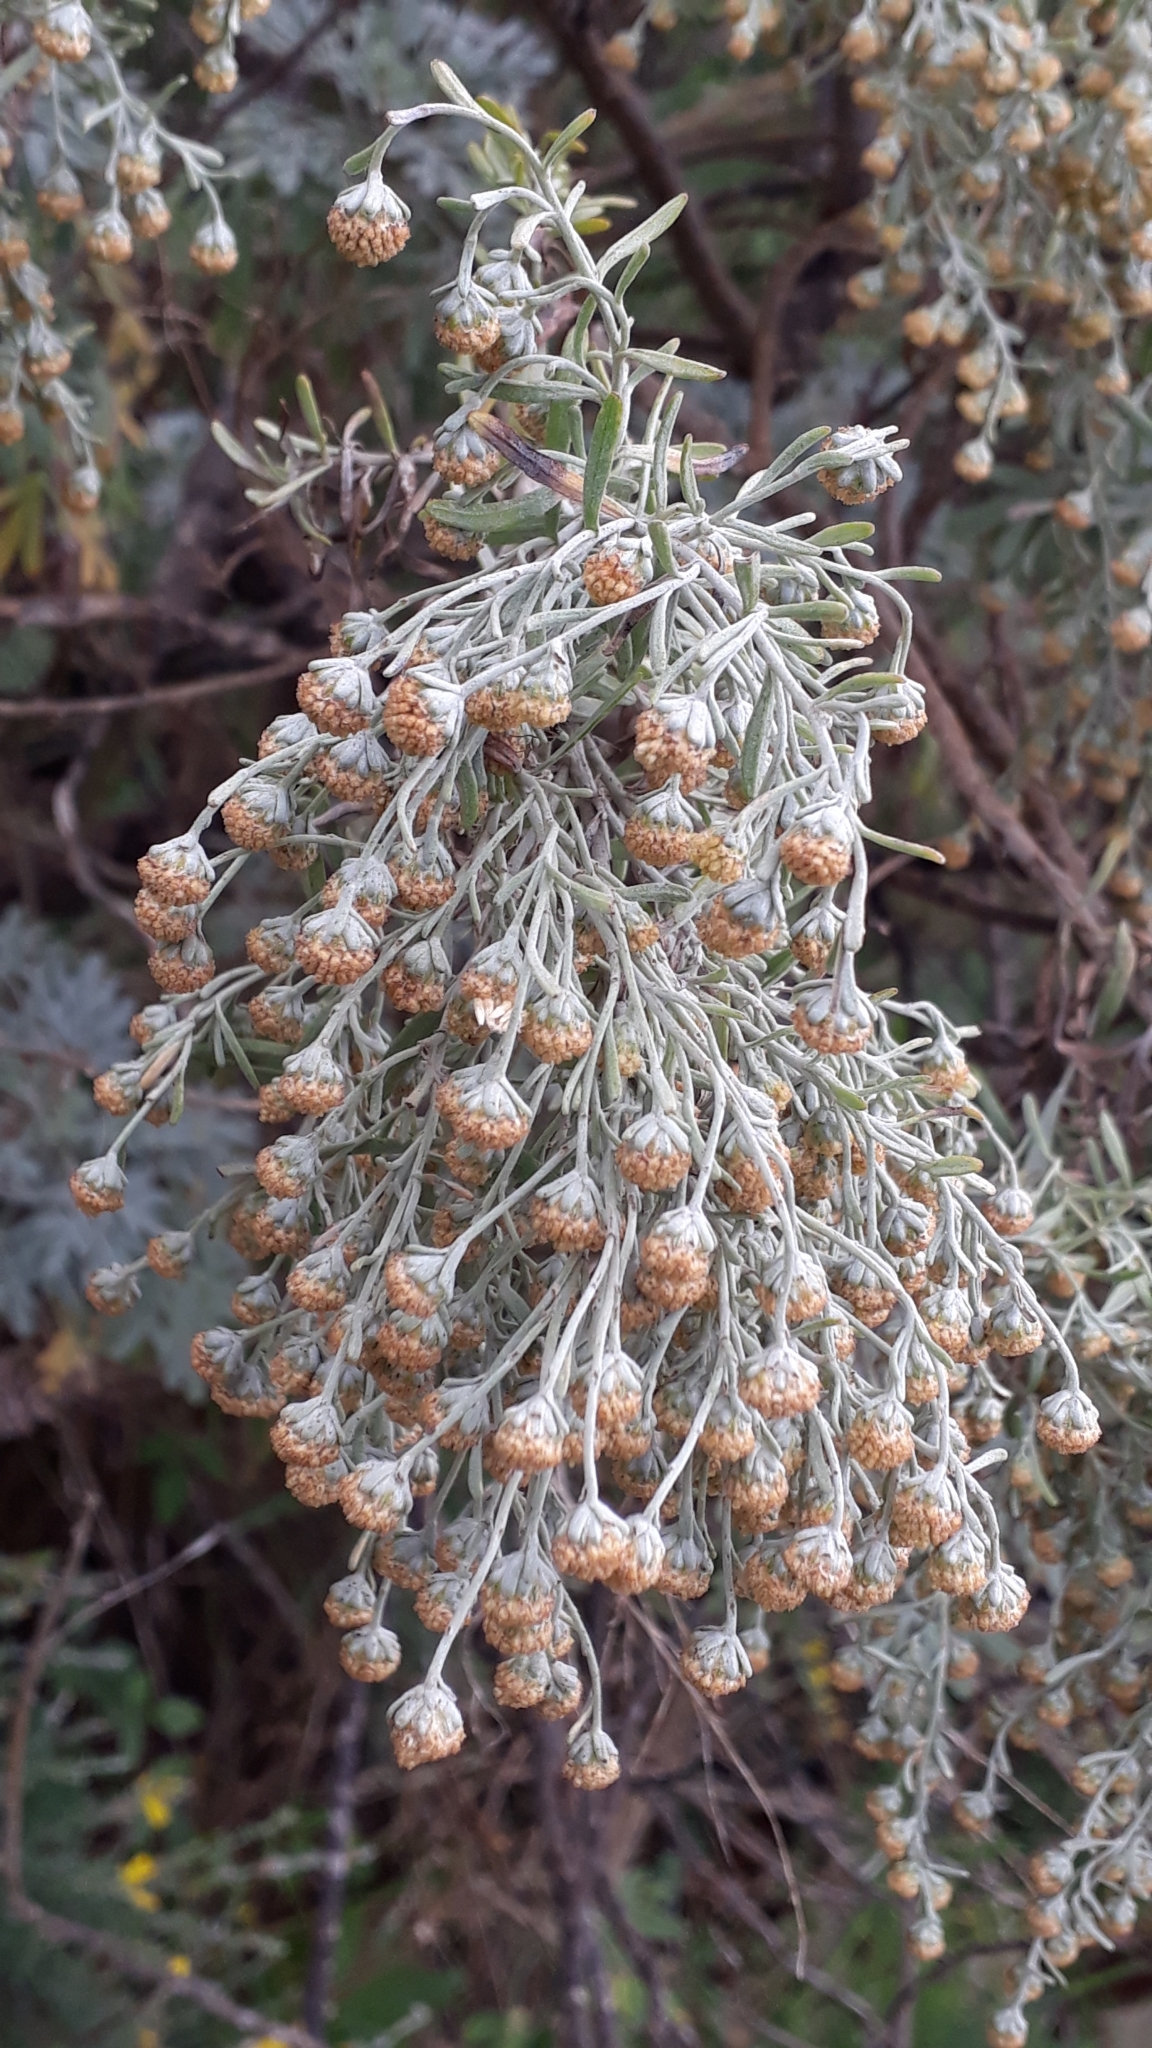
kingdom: Plantae
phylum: Tracheophyta
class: Magnoliopsida
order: Asterales
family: Asteraceae
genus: Artemisia
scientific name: Artemisia thuscula
